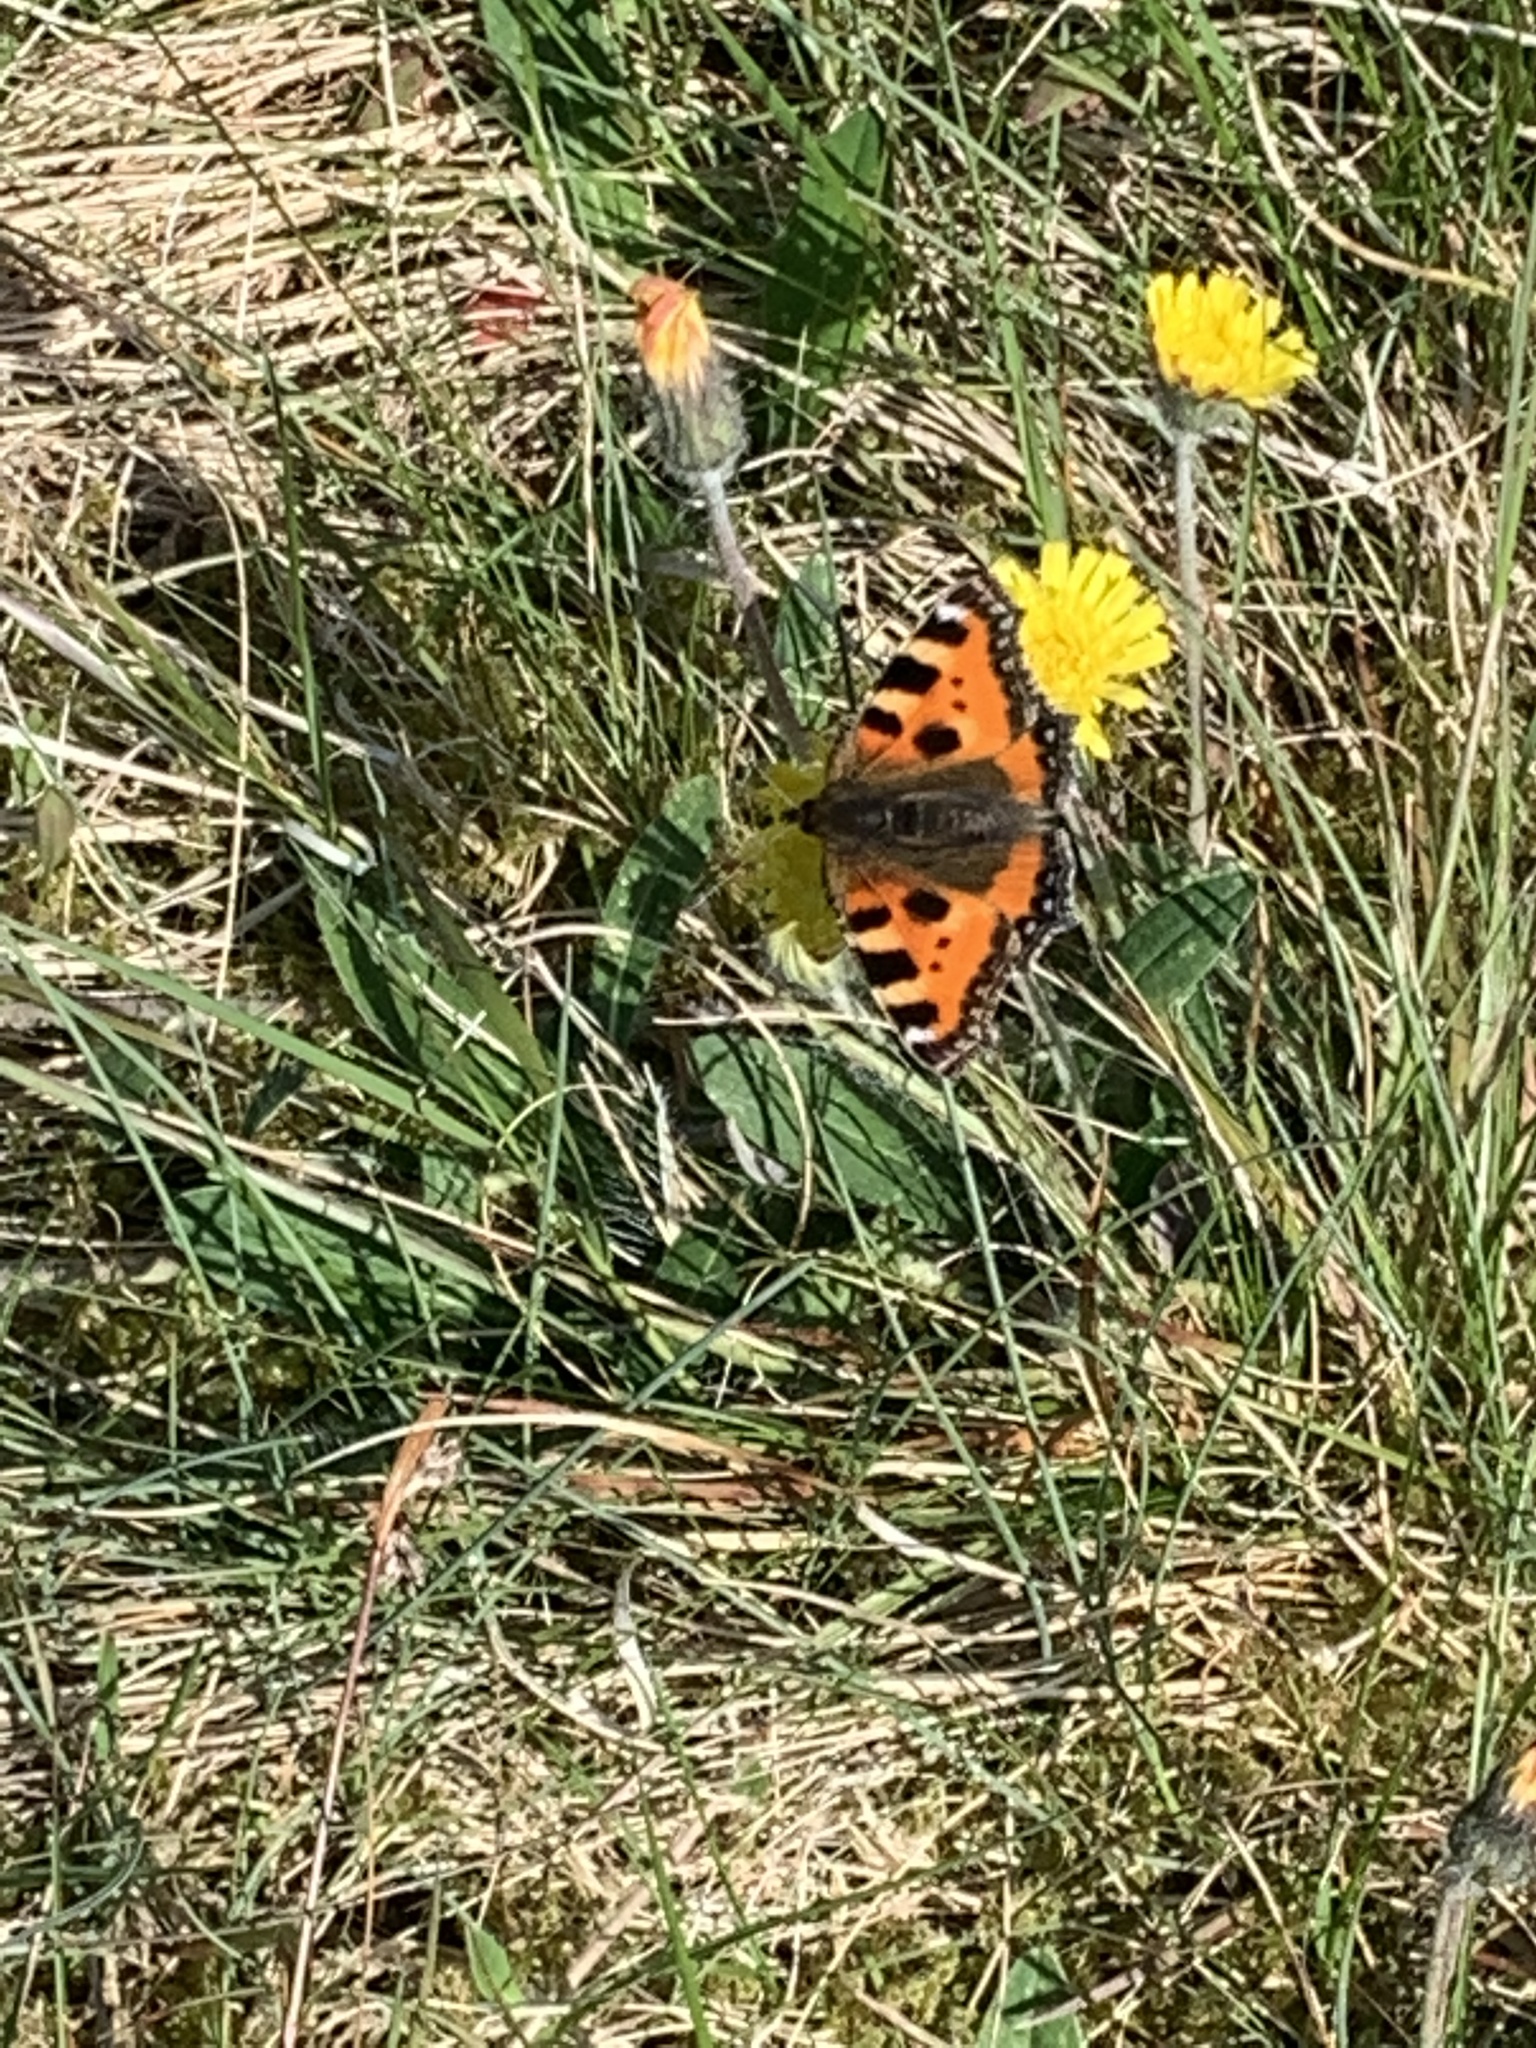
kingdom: Animalia
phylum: Arthropoda
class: Insecta
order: Lepidoptera
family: Nymphalidae
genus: Aglais
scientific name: Aglais urticae
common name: Small tortoiseshell
